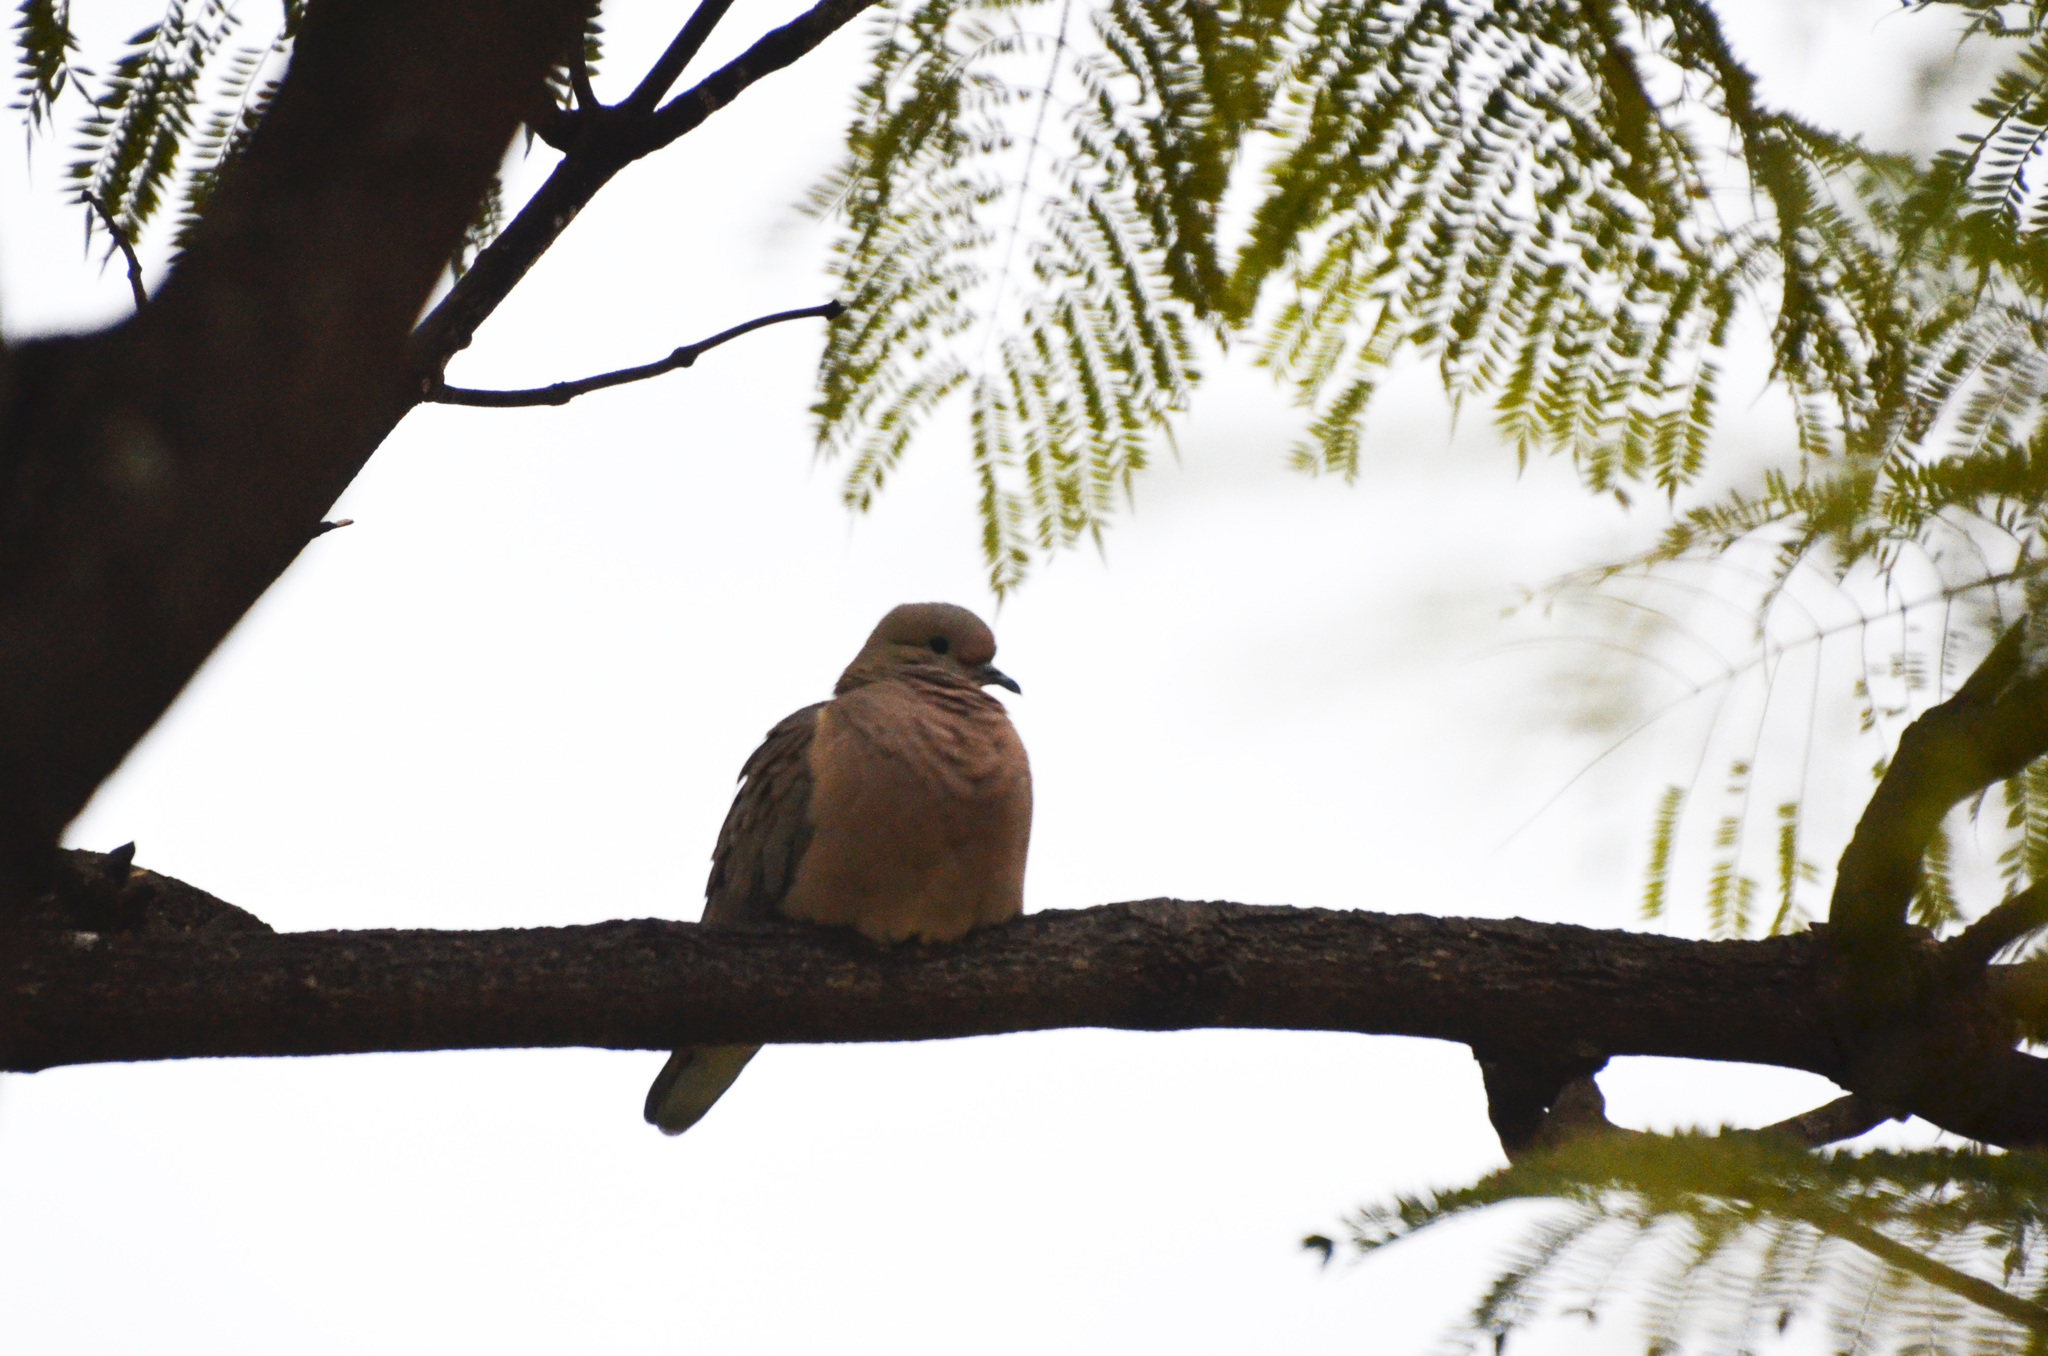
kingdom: Animalia
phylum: Chordata
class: Aves
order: Columbiformes
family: Columbidae
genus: Zenaida
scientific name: Zenaida auriculata
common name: Eared dove
